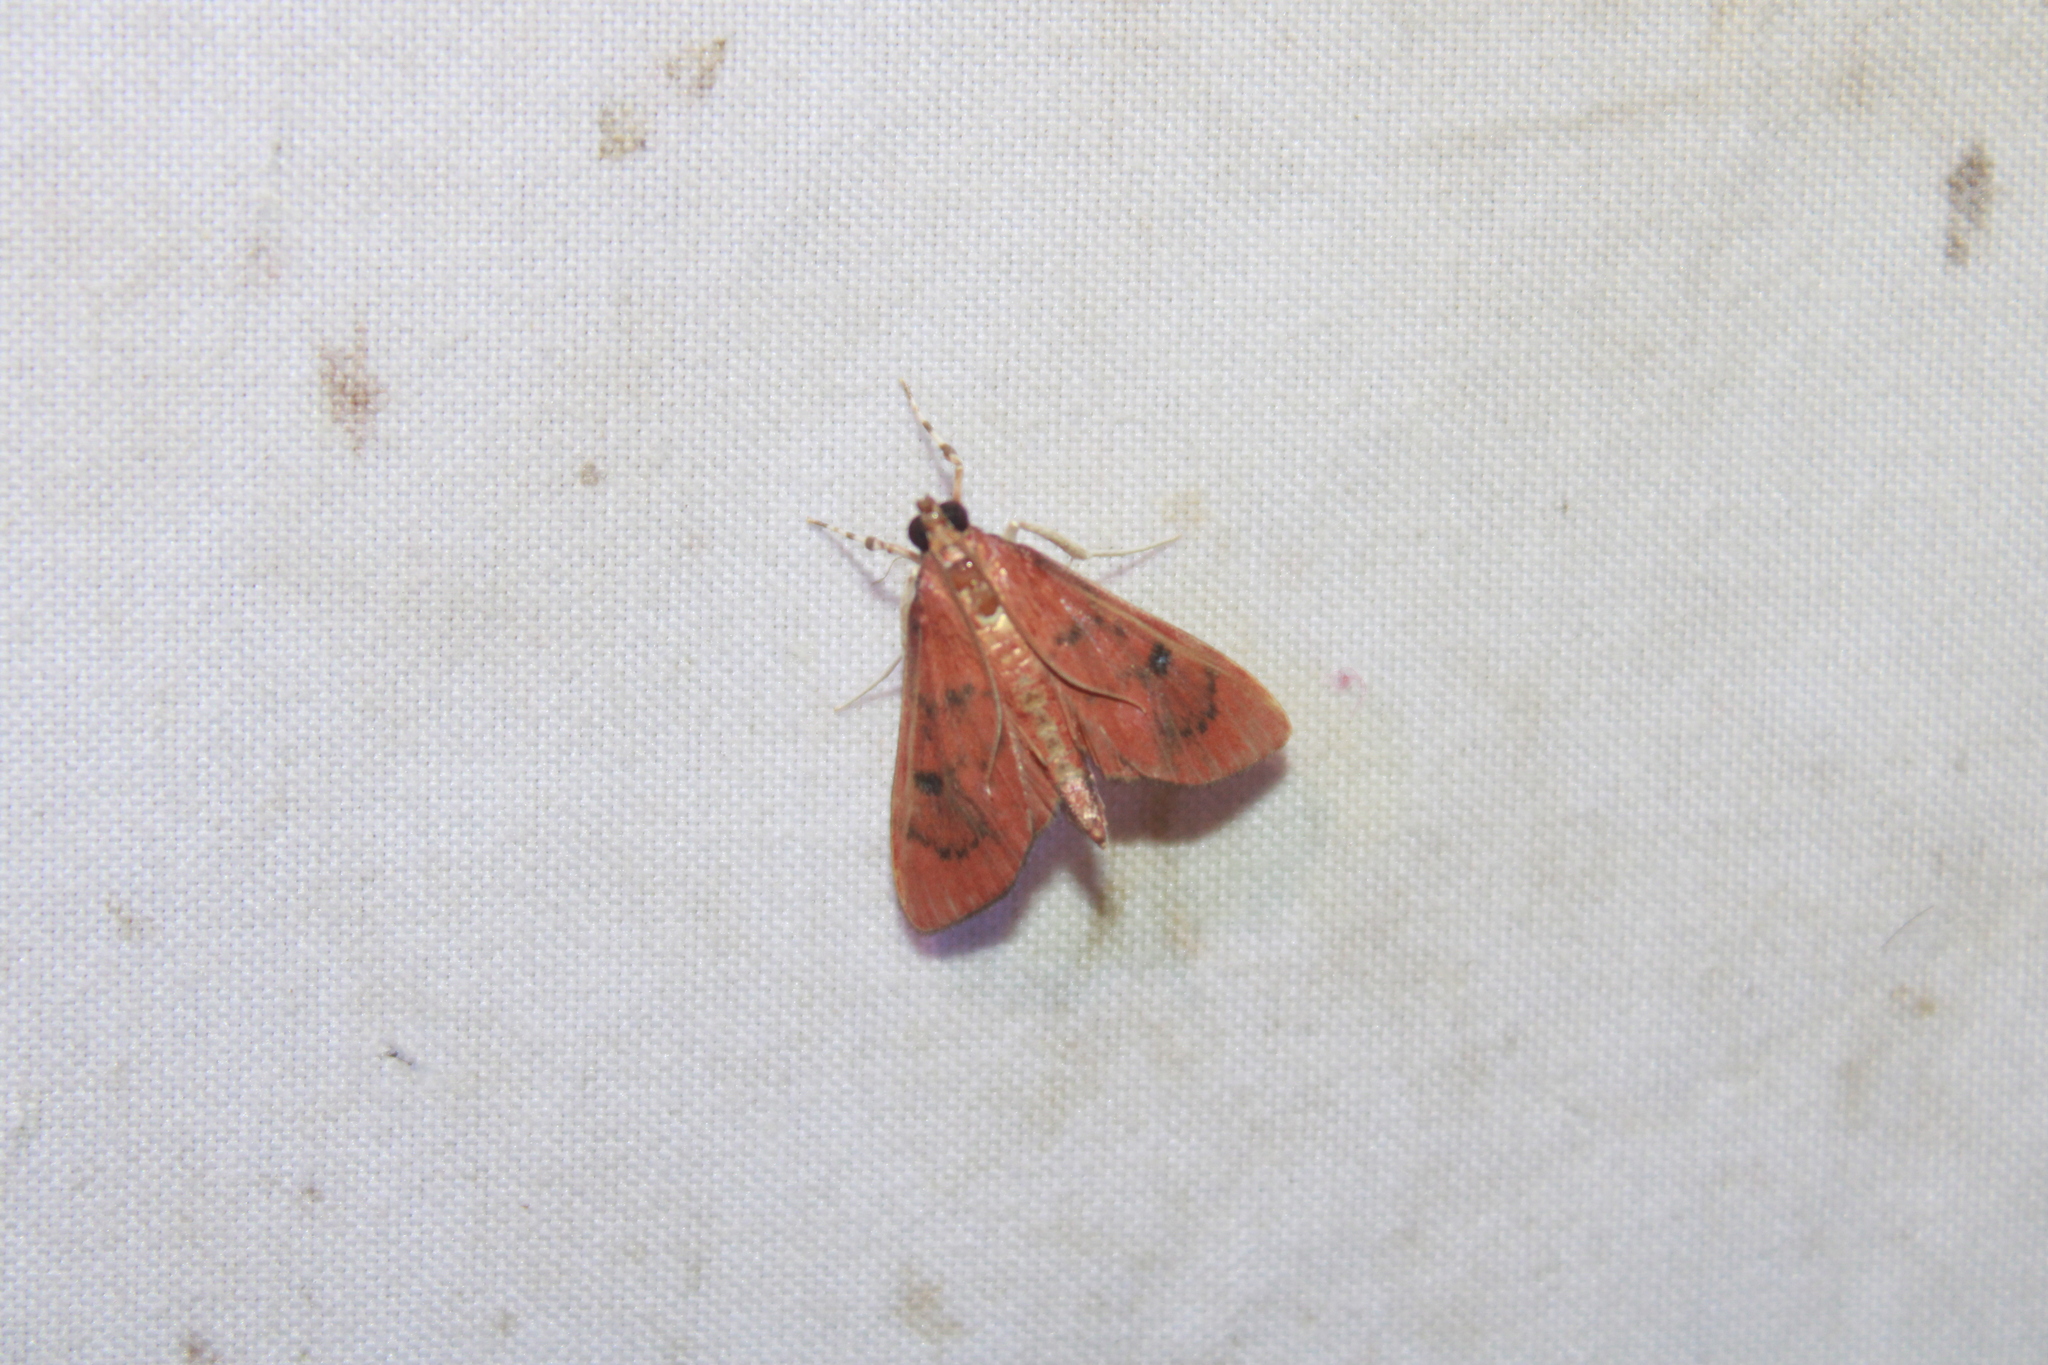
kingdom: Animalia
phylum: Arthropoda
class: Insecta
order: Lepidoptera
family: Crambidae
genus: Oenobotys
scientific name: Oenobotys vinotinctalis
